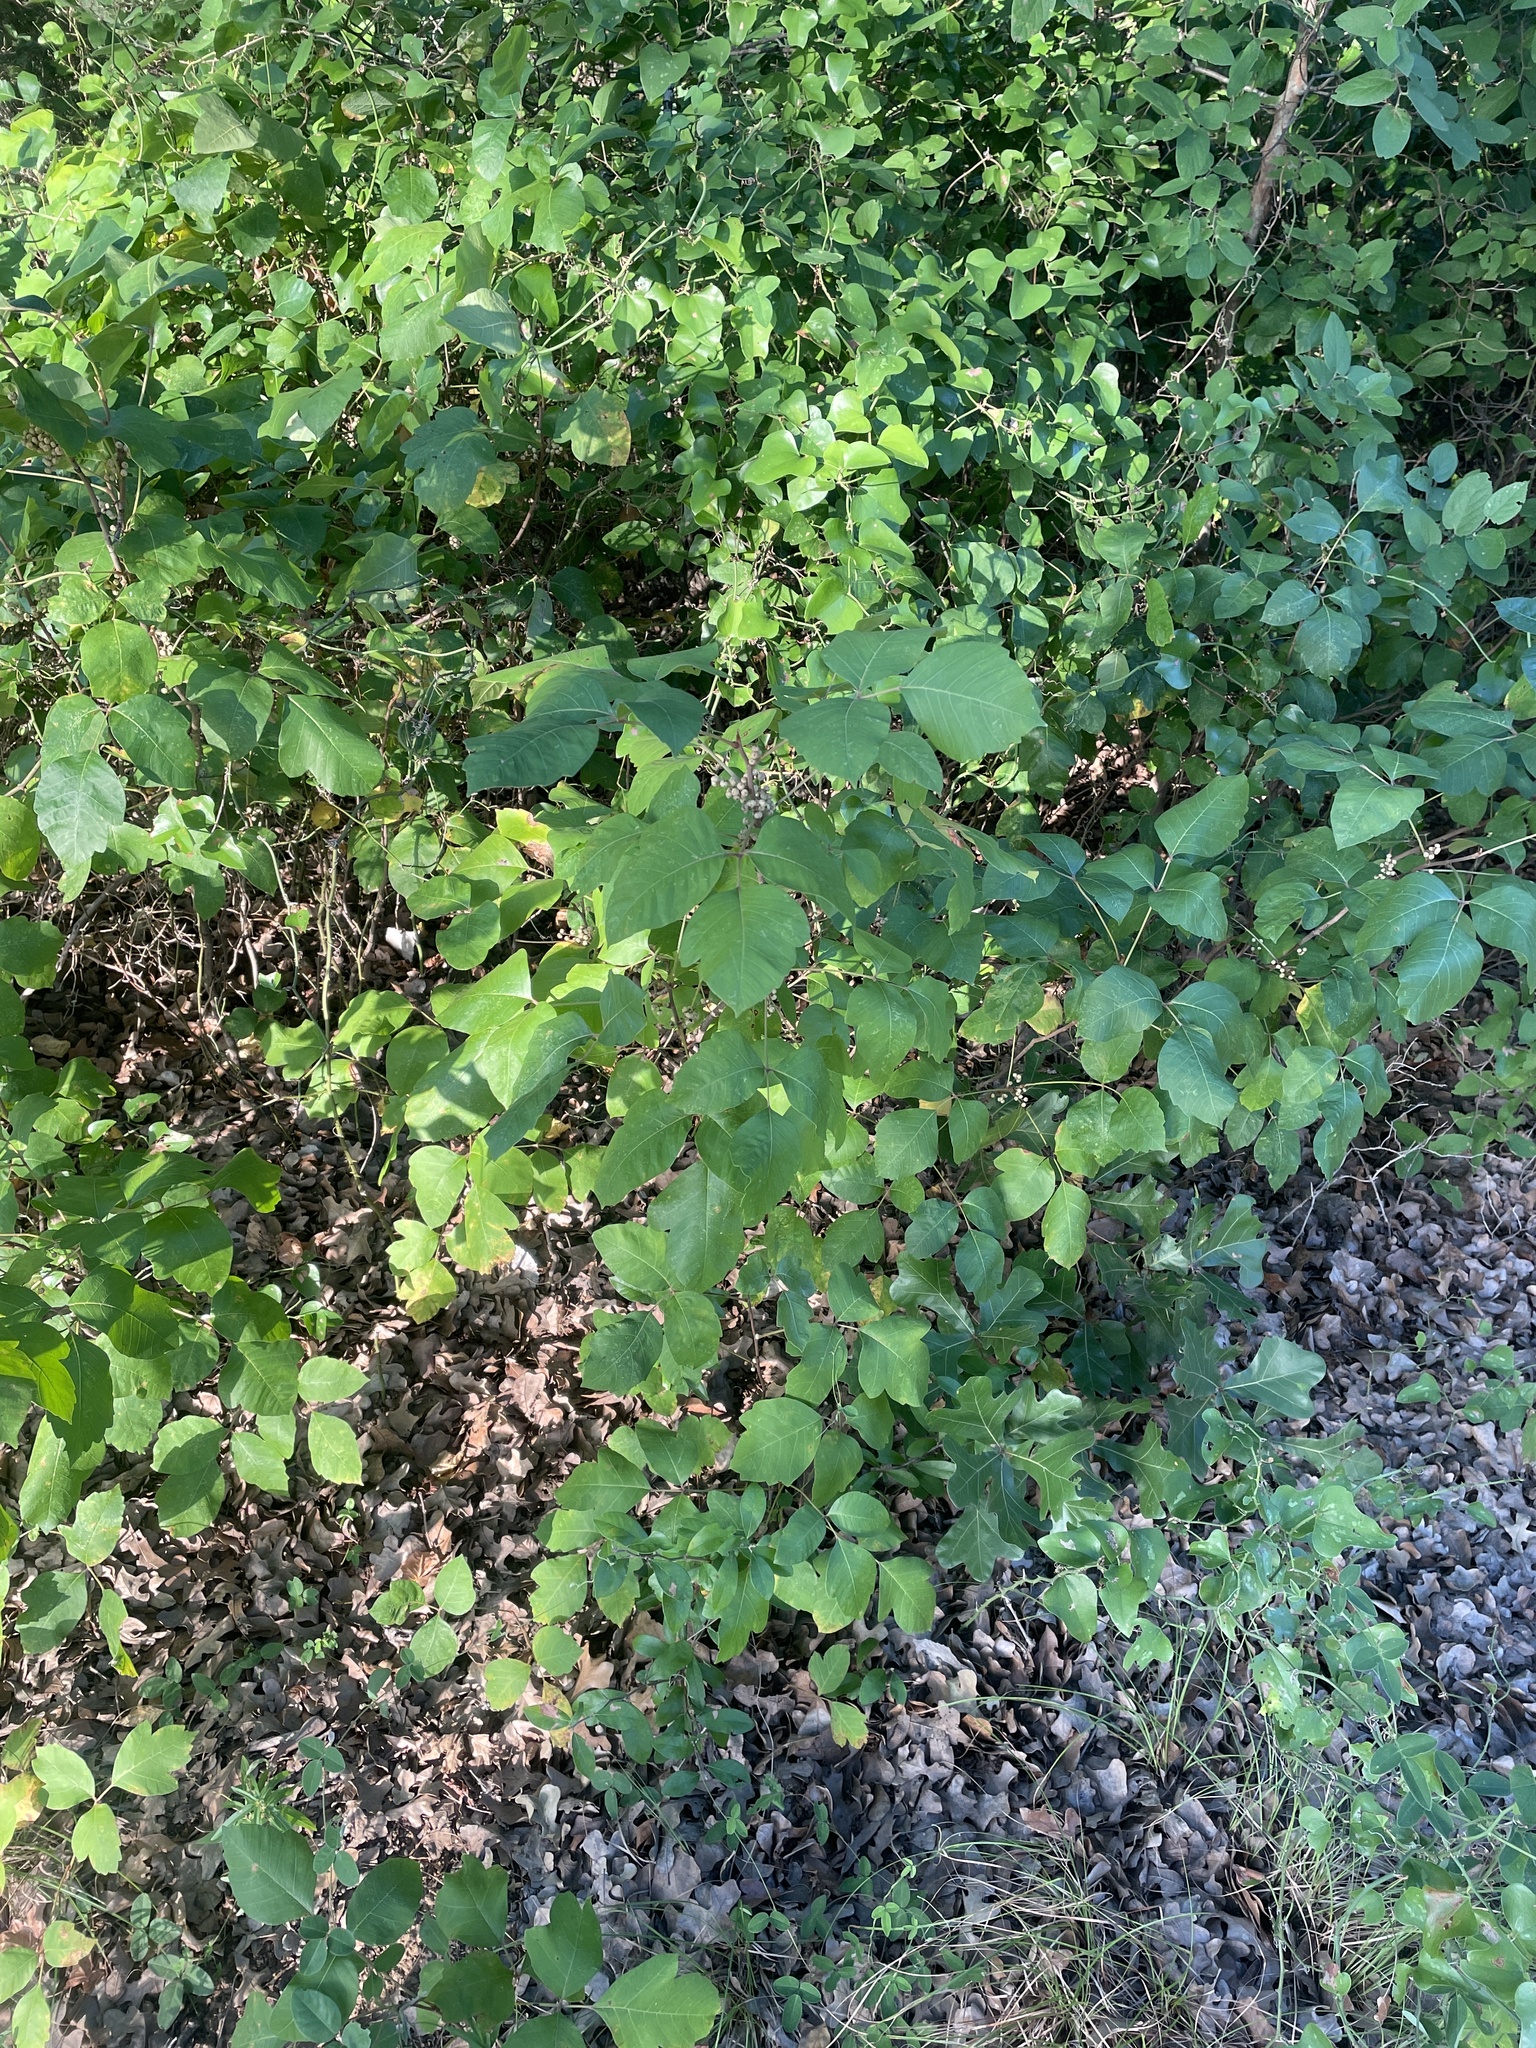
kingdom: Plantae
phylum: Tracheophyta
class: Magnoliopsida
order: Sapindales
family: Anacardiaceae
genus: Toxicodendron
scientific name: Toxicodendron radicans
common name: Poison ivy
